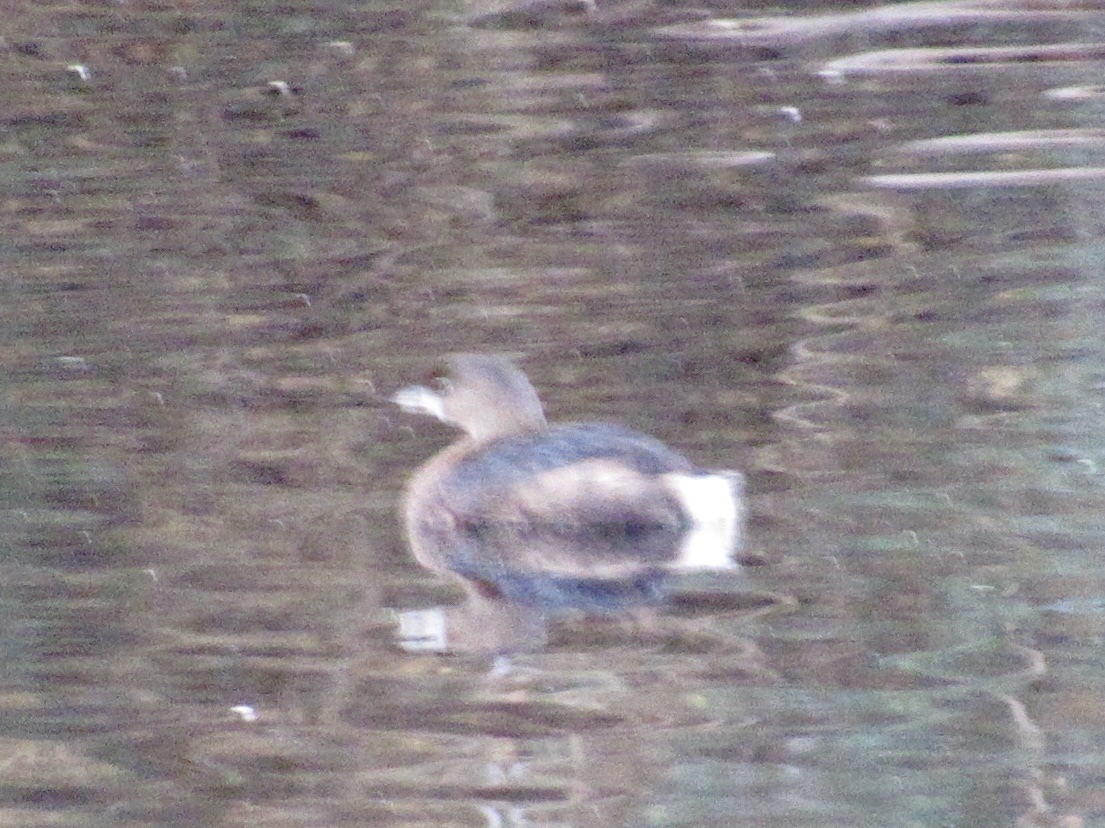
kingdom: Animalia
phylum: Chordata
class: Aves
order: Podicipediformes
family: Podicipedidae
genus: Podilymbus
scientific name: Podilymbus podiceps
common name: Pied-billed grebe
